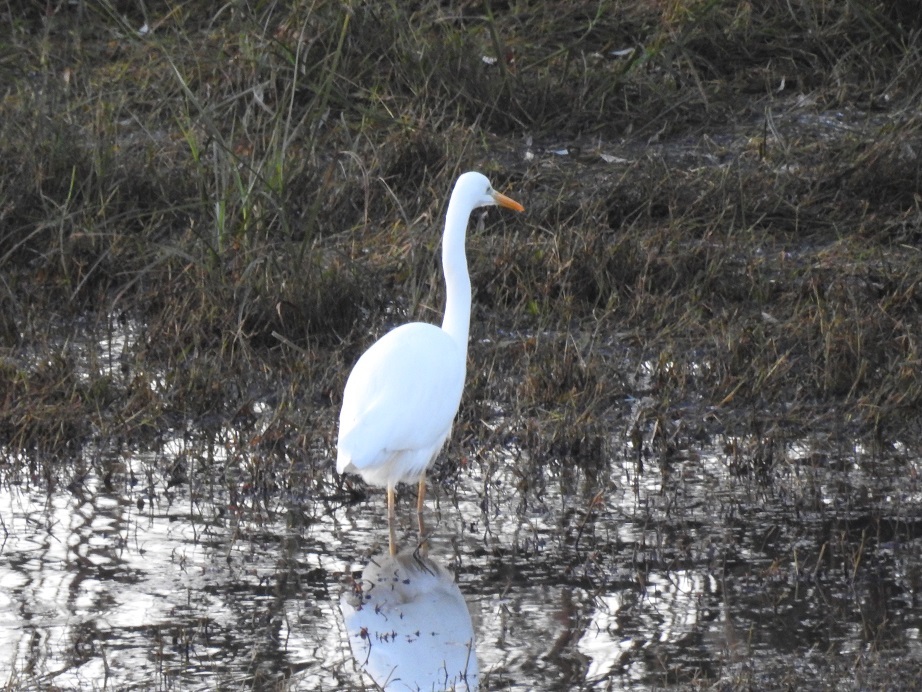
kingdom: Animalia
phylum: Chordata
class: Aves
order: Pelecaniformes
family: Ardeidae
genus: Ardea
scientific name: Ardea alba
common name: Great egret
